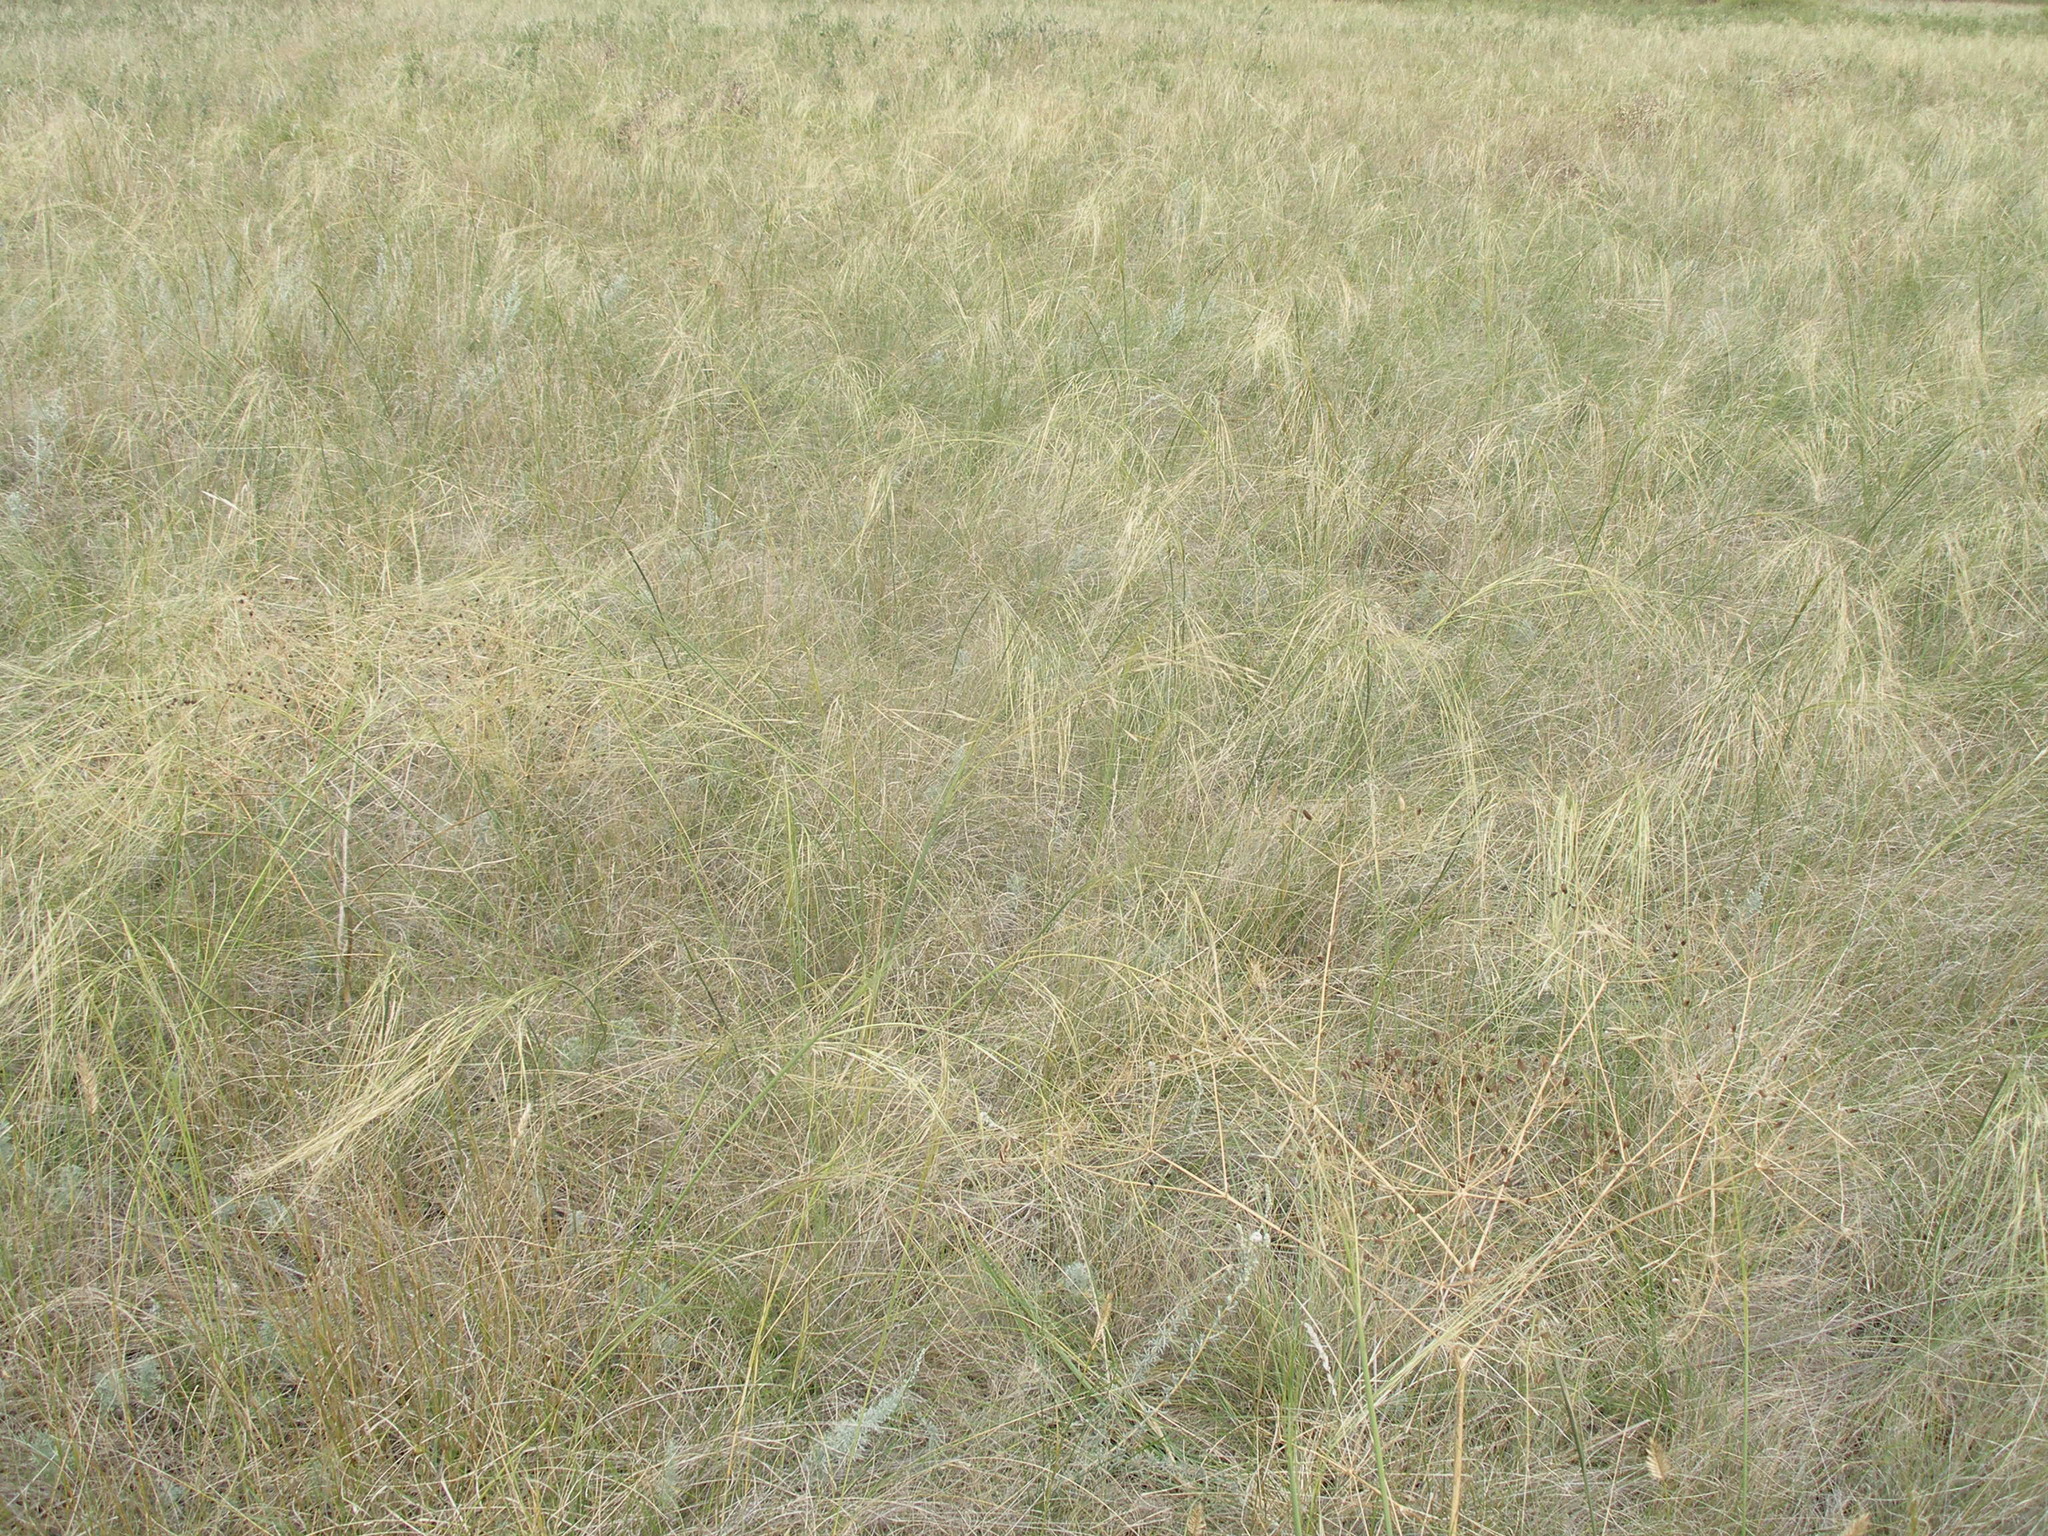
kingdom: Plantae
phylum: Tracheophyta
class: Liliopsida
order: Poales
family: Poaceae
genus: Stipa
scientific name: Stipa capillata
